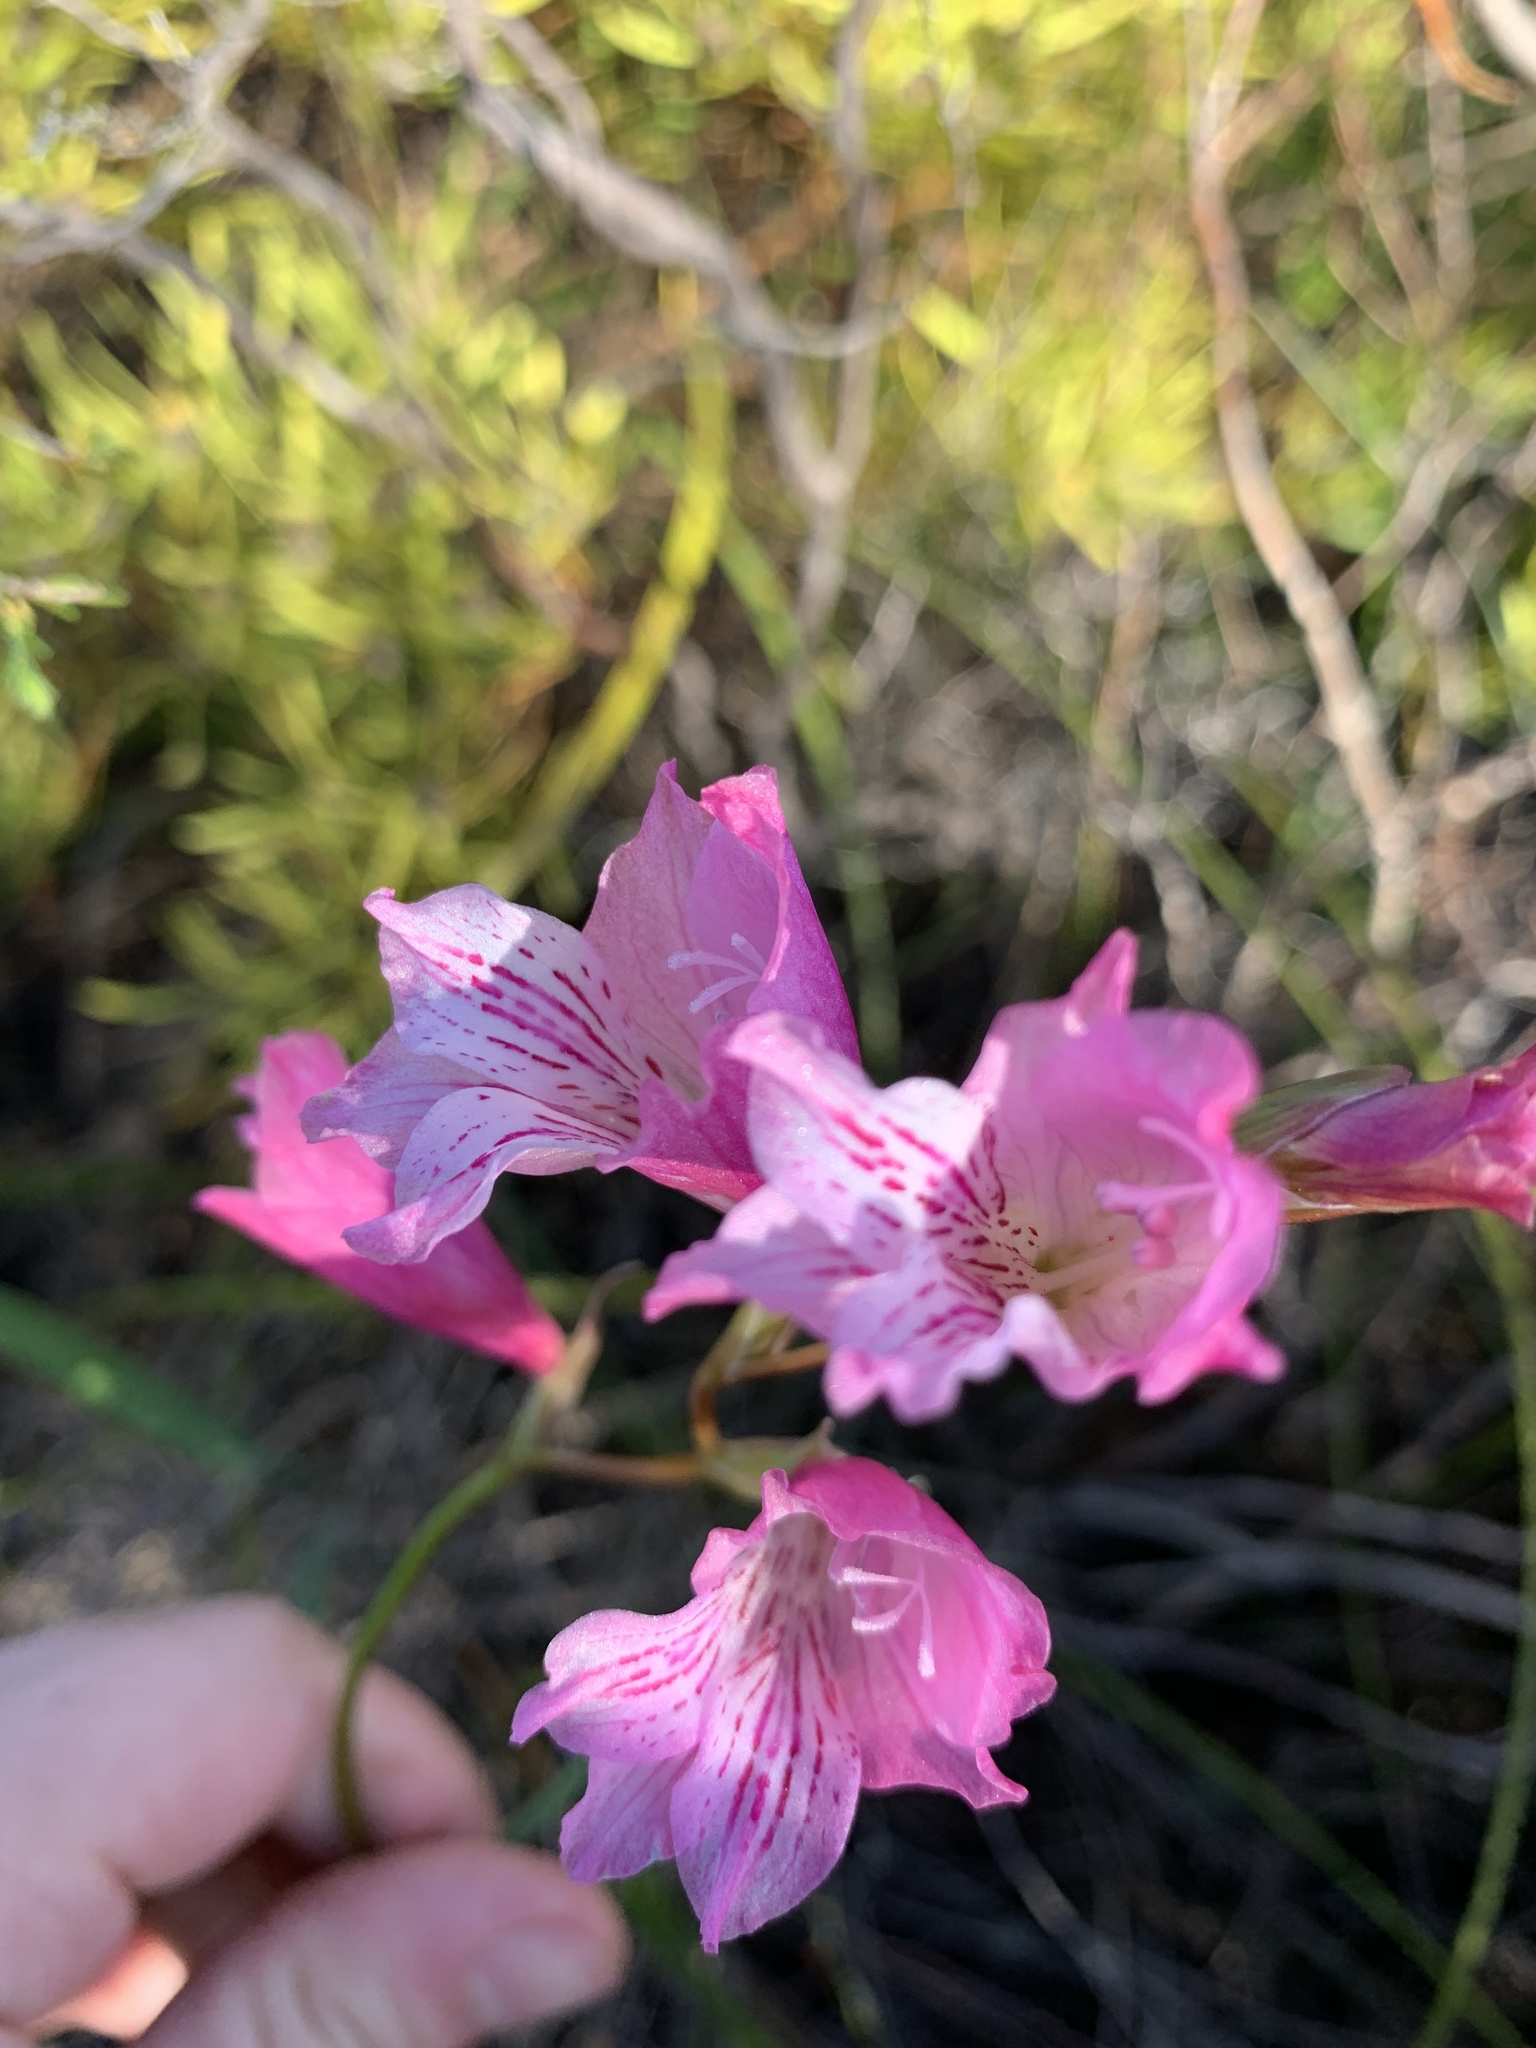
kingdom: Plantae
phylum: Tracheophyta
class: Liliopsida
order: Asparagales
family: Iridaceae
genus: Gladiolus
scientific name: Gladiolus hirsutus
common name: Small pink afrikaner
